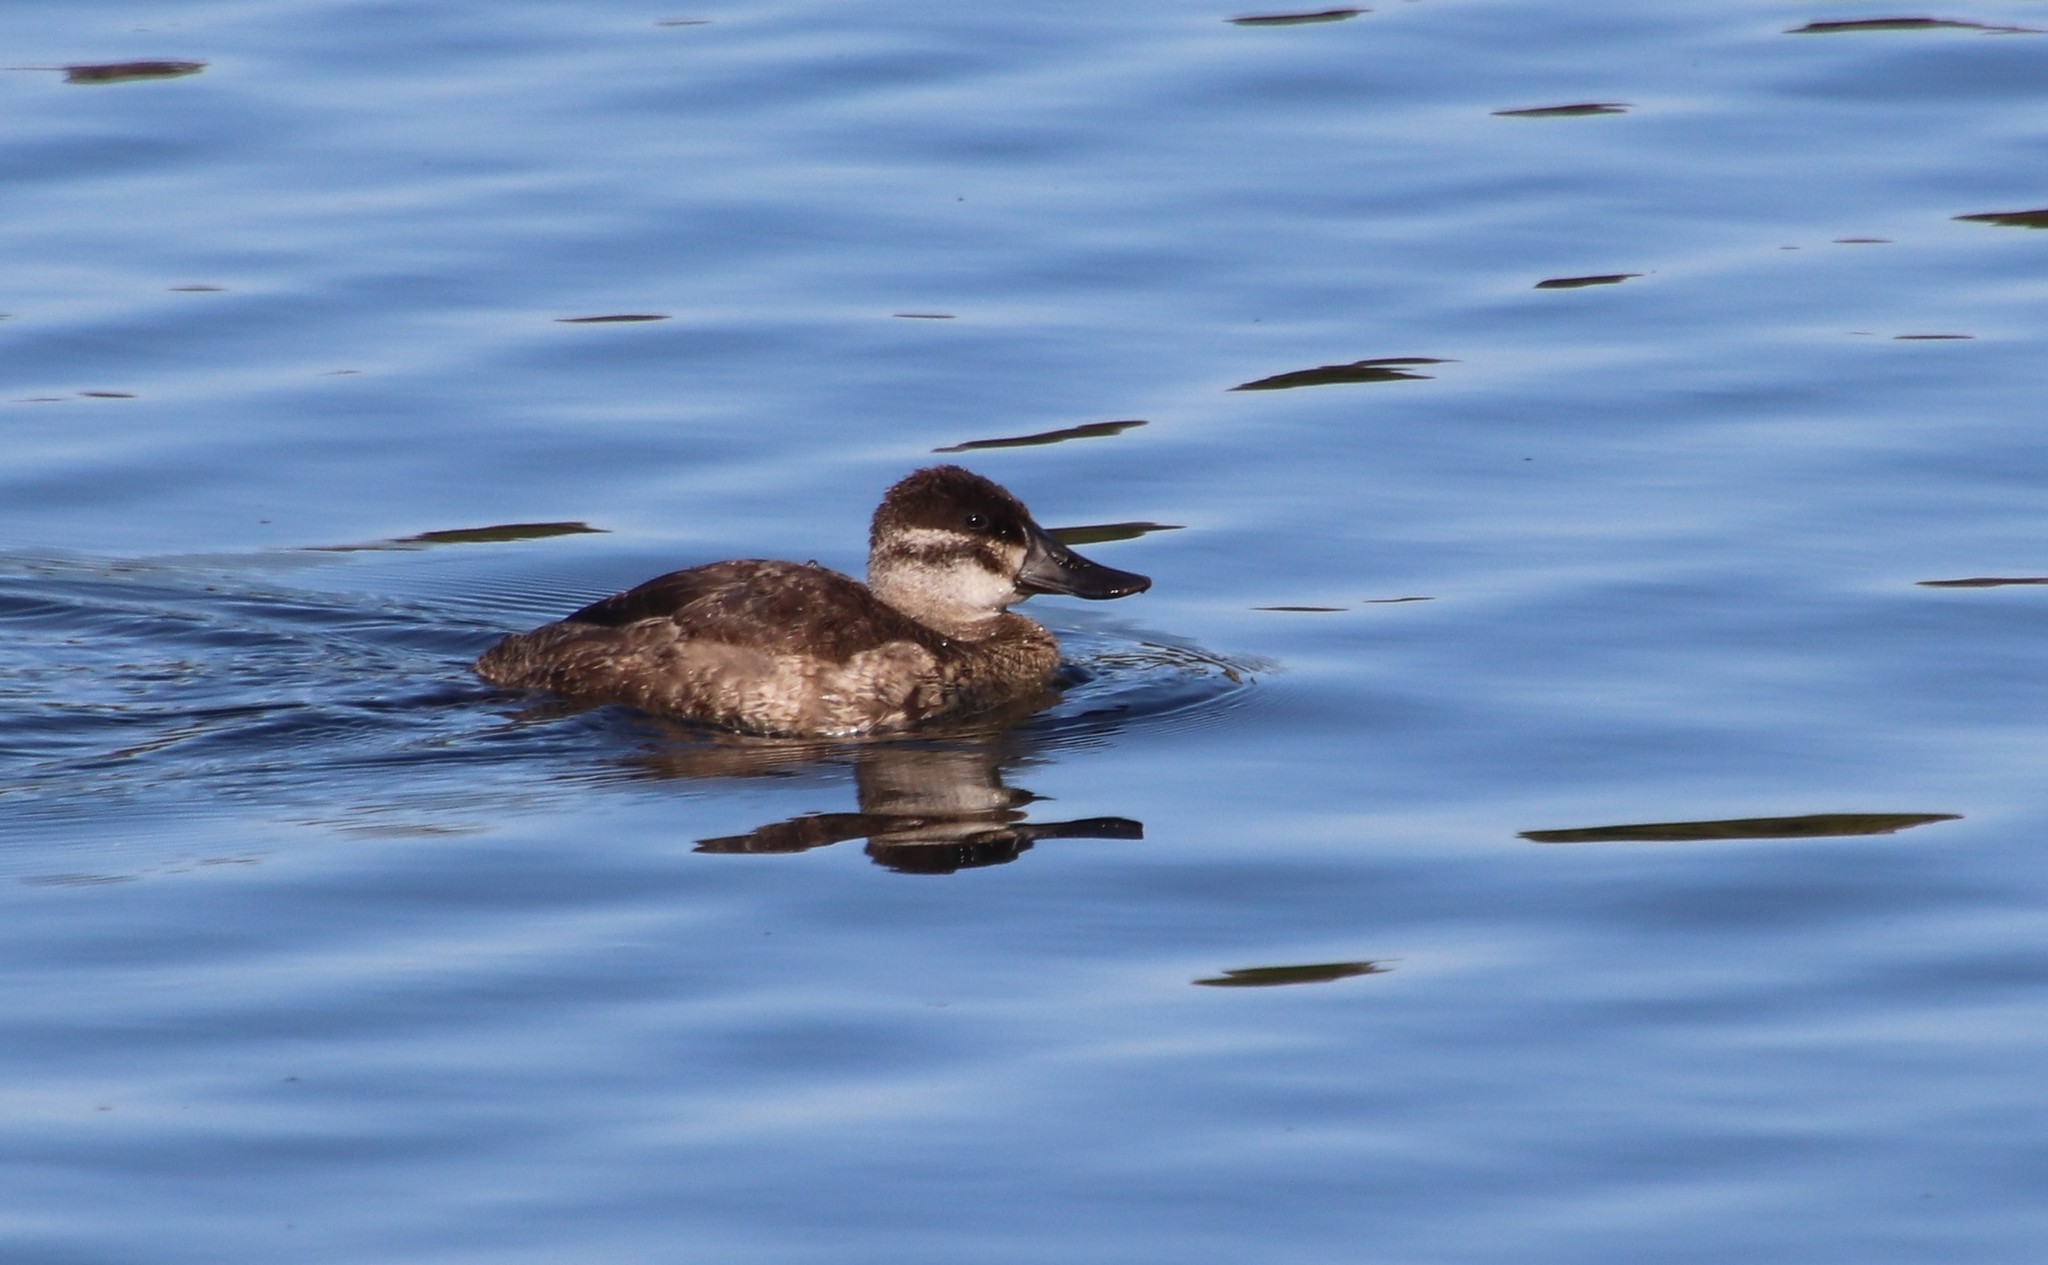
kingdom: Animalia
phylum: Chordata
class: Aves
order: Anseriformes
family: Anatidae
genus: Oxyura
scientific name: Oxyura jamaicensis
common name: Ruddy duck
